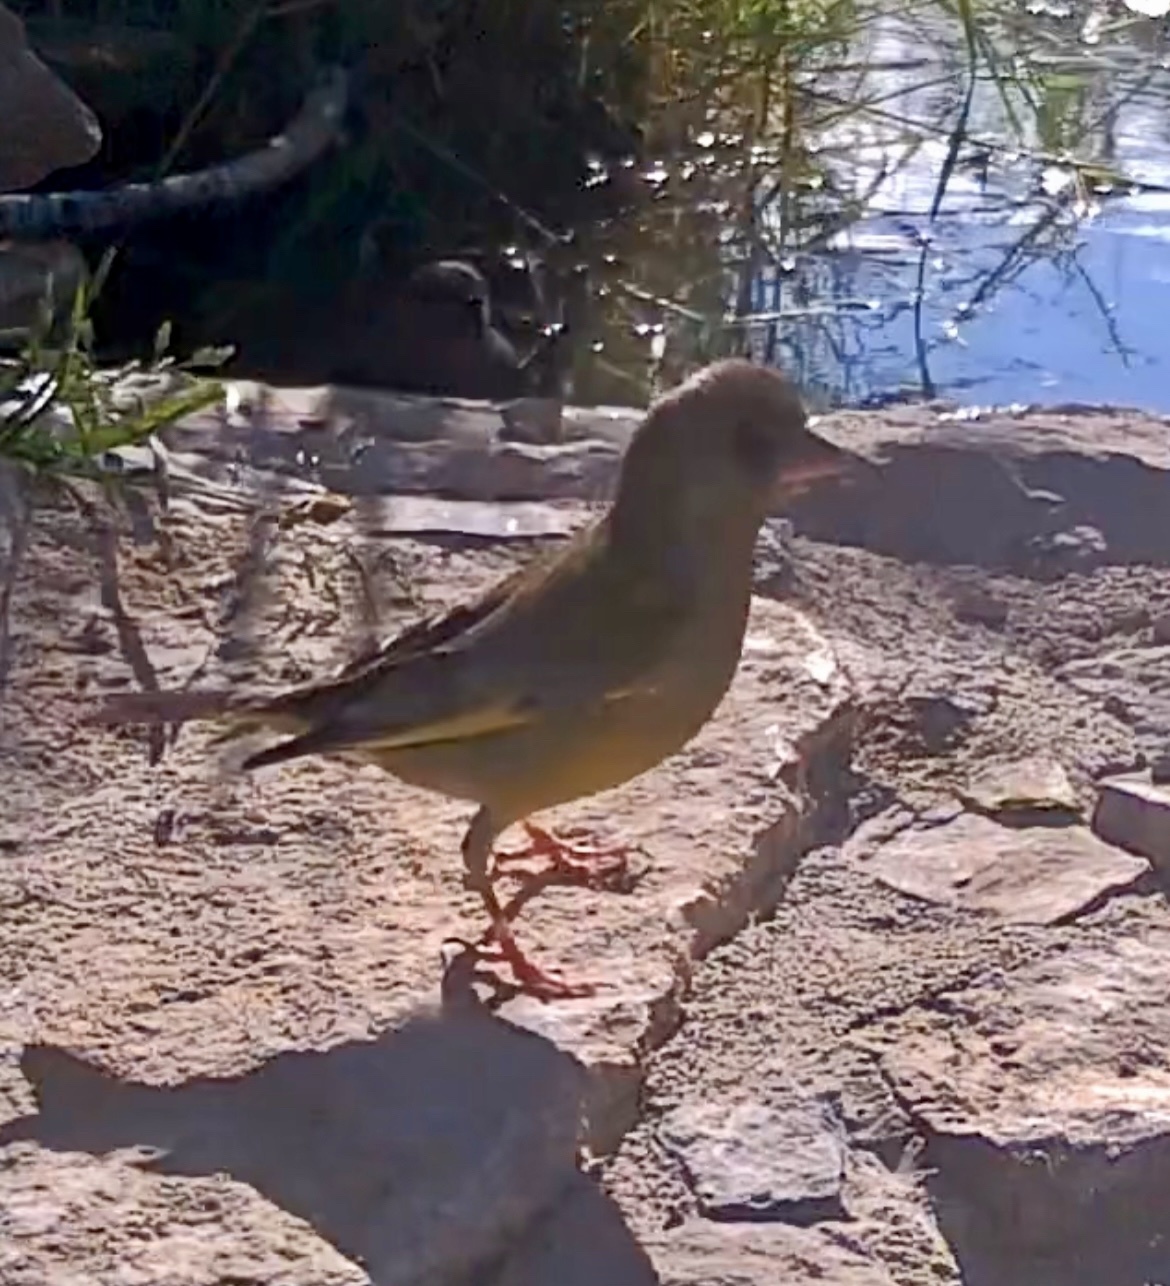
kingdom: Plantae
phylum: Tracheophyta
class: Liliopsida
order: Poales
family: Poaceae
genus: Chloris
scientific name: Chloris chloris
